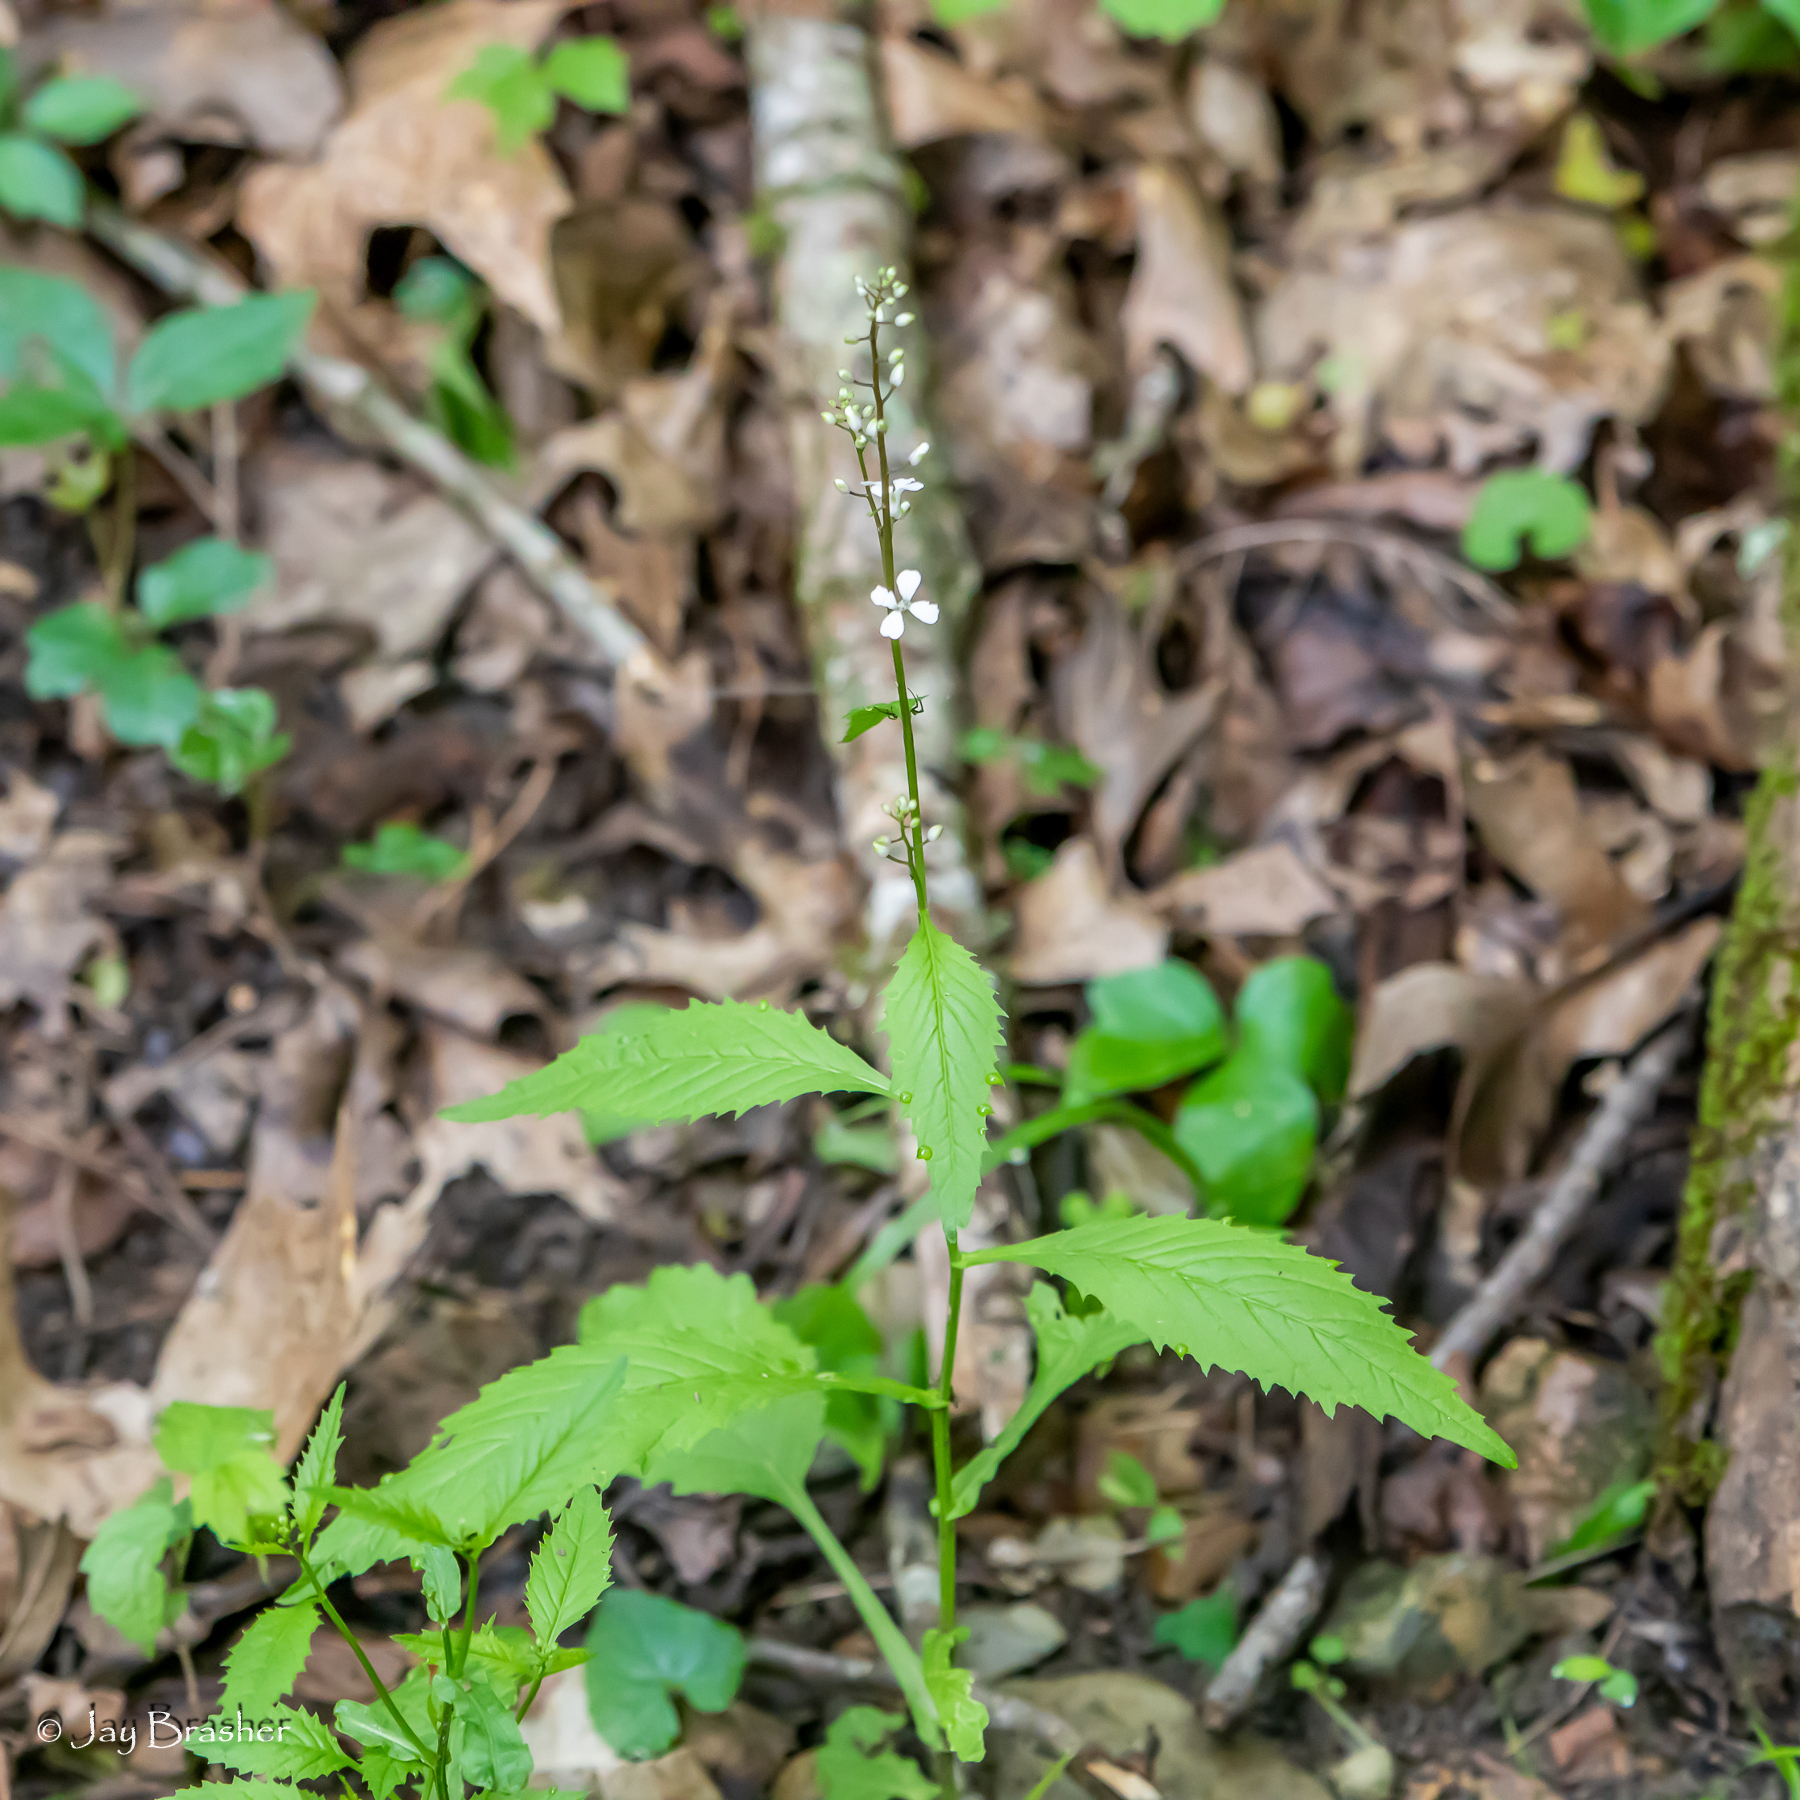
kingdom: Plantae
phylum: Tracheophyta
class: Magnoliopsida
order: Brassicales
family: Brassicaceae
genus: Iodanthus
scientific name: Iodanthus pinnatifidus
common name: Violet rocket
